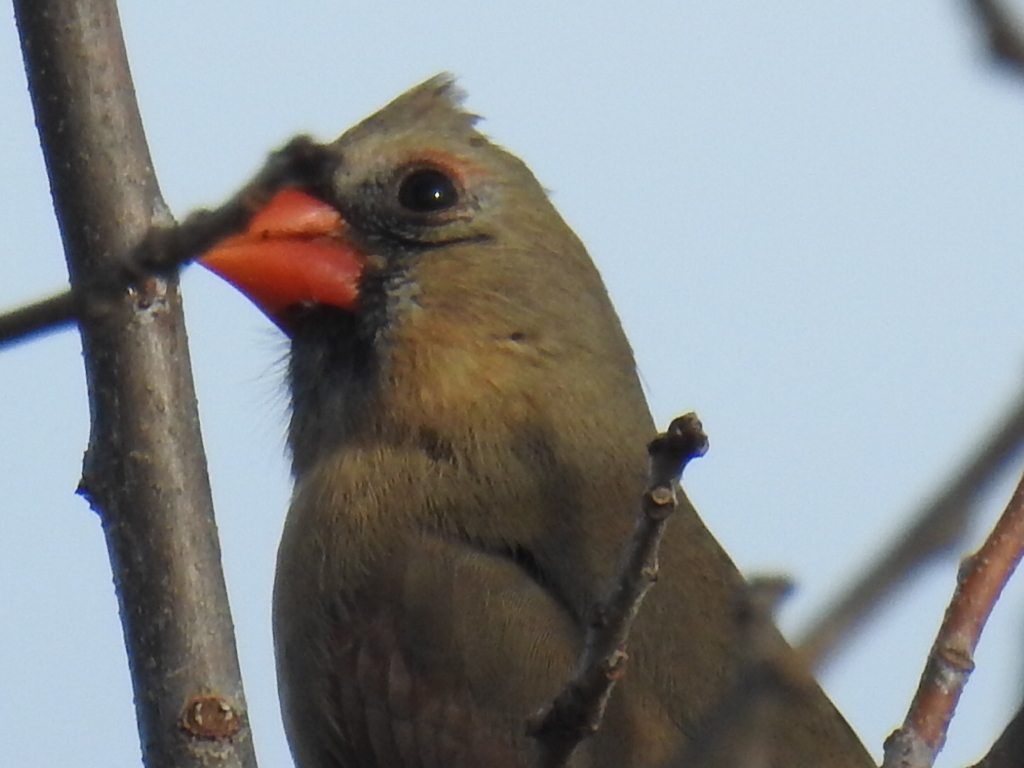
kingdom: Animalia
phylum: Chordata
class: Aves
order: Passeriformes
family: Cardinalidae
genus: Cardinalis
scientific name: Cardinalis cardinalis
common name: Northern cardinal
